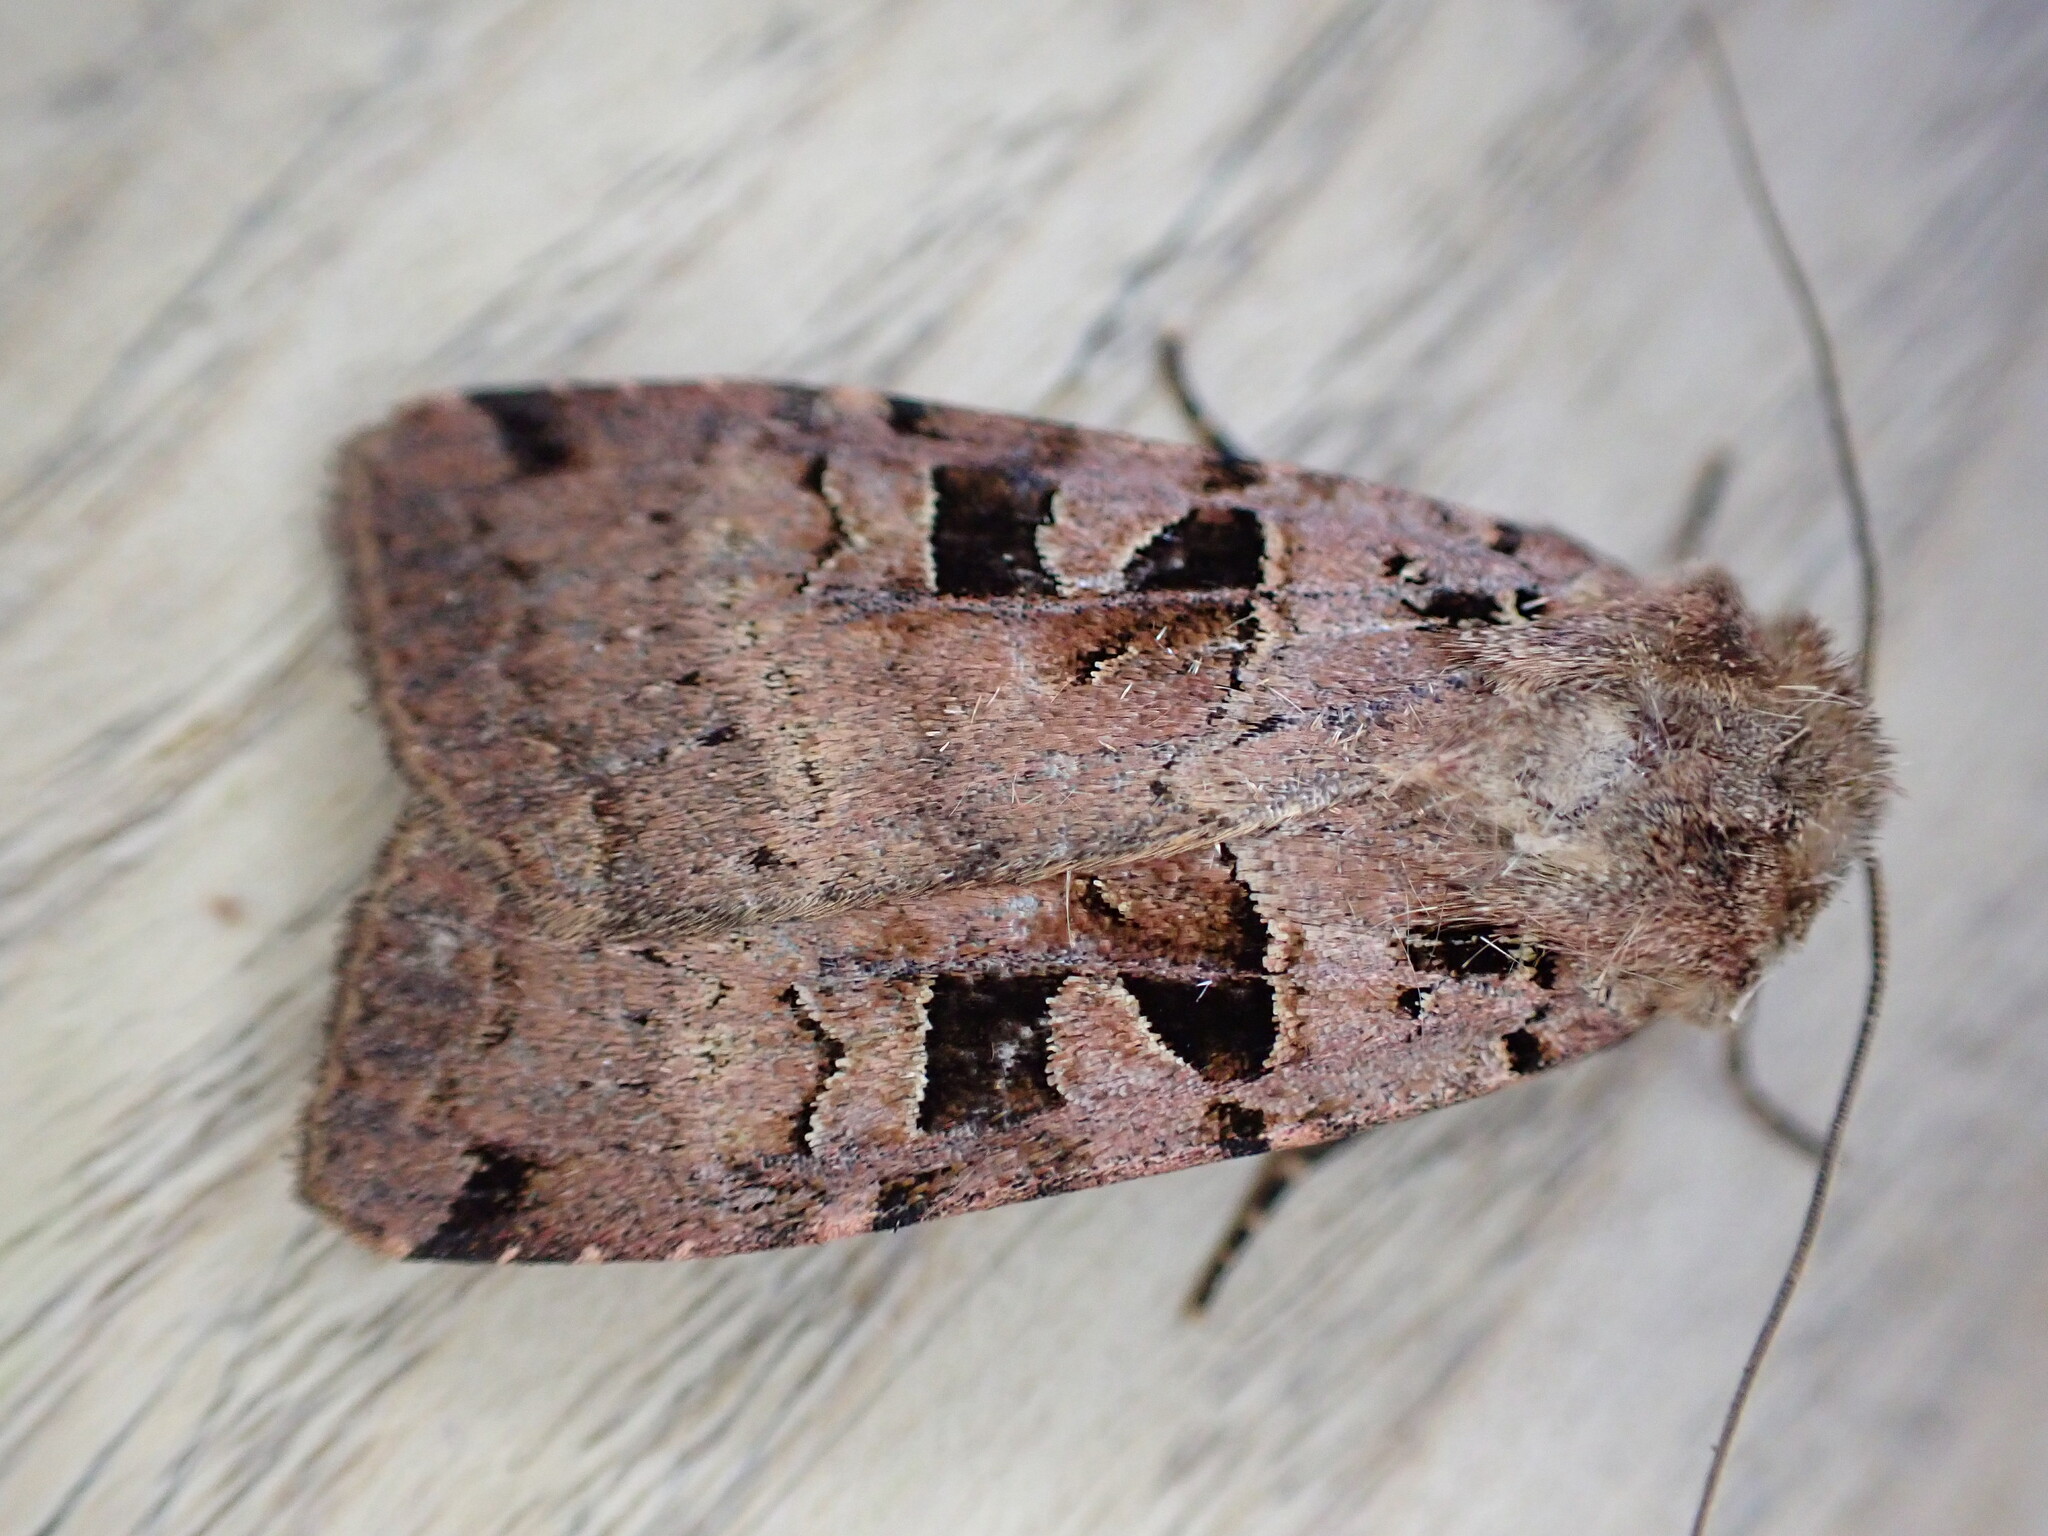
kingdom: Animalia
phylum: Arthropoda
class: Insecta
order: Lepidoptera
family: Noctuidae
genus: Xestia
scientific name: Xestia triangulum
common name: Double square-spot
